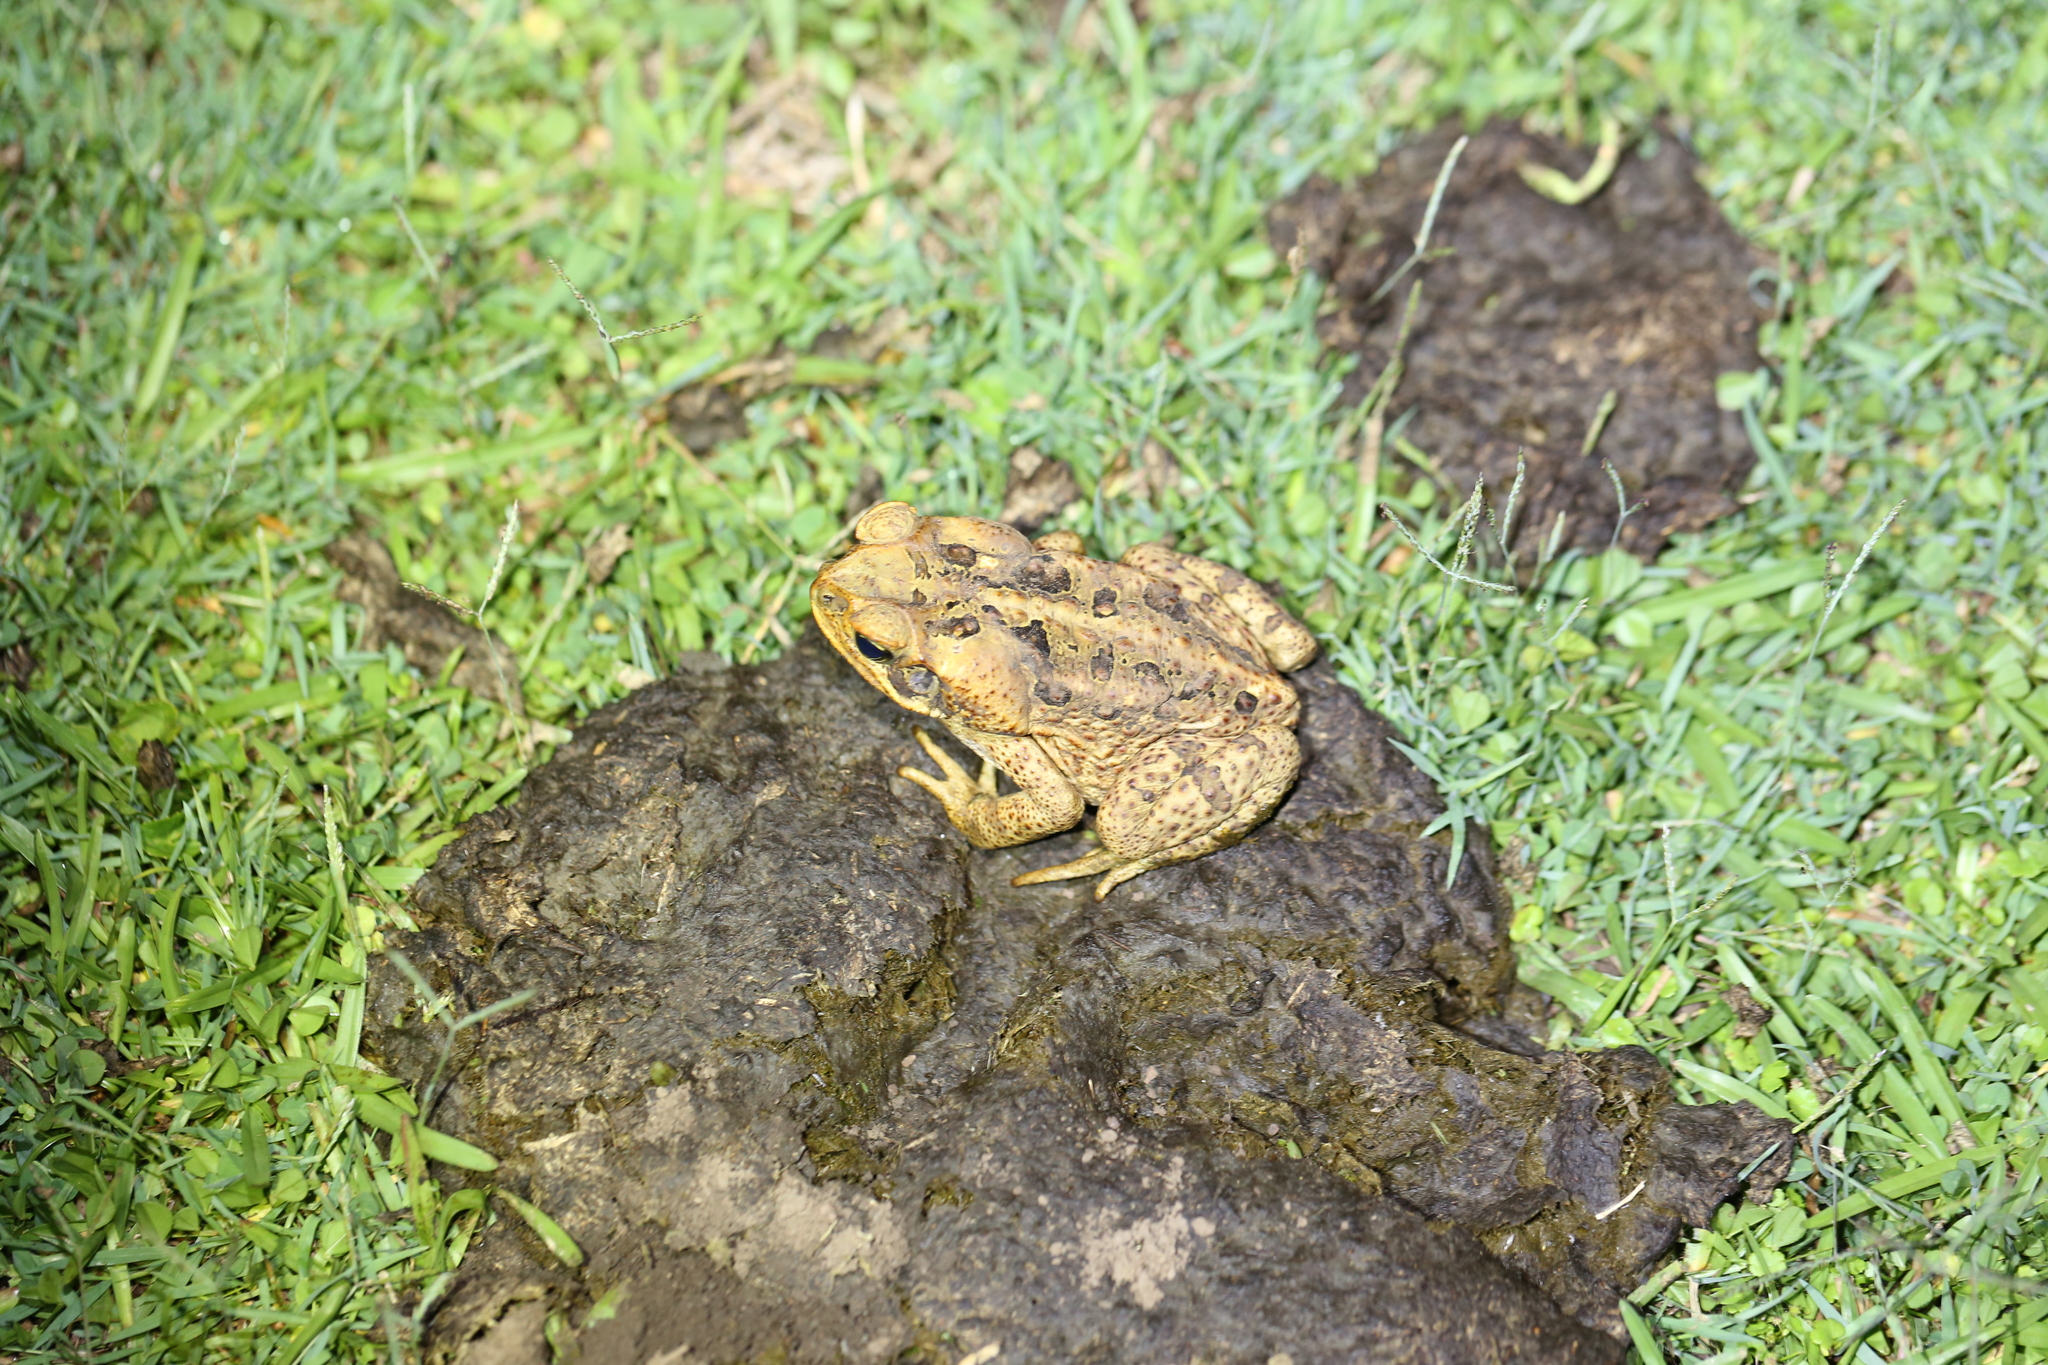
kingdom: Animalia
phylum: Chordata
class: Amphibia
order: Anura
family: Bufonidae
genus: Rhinella
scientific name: Rhinella marina
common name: Cane toad
